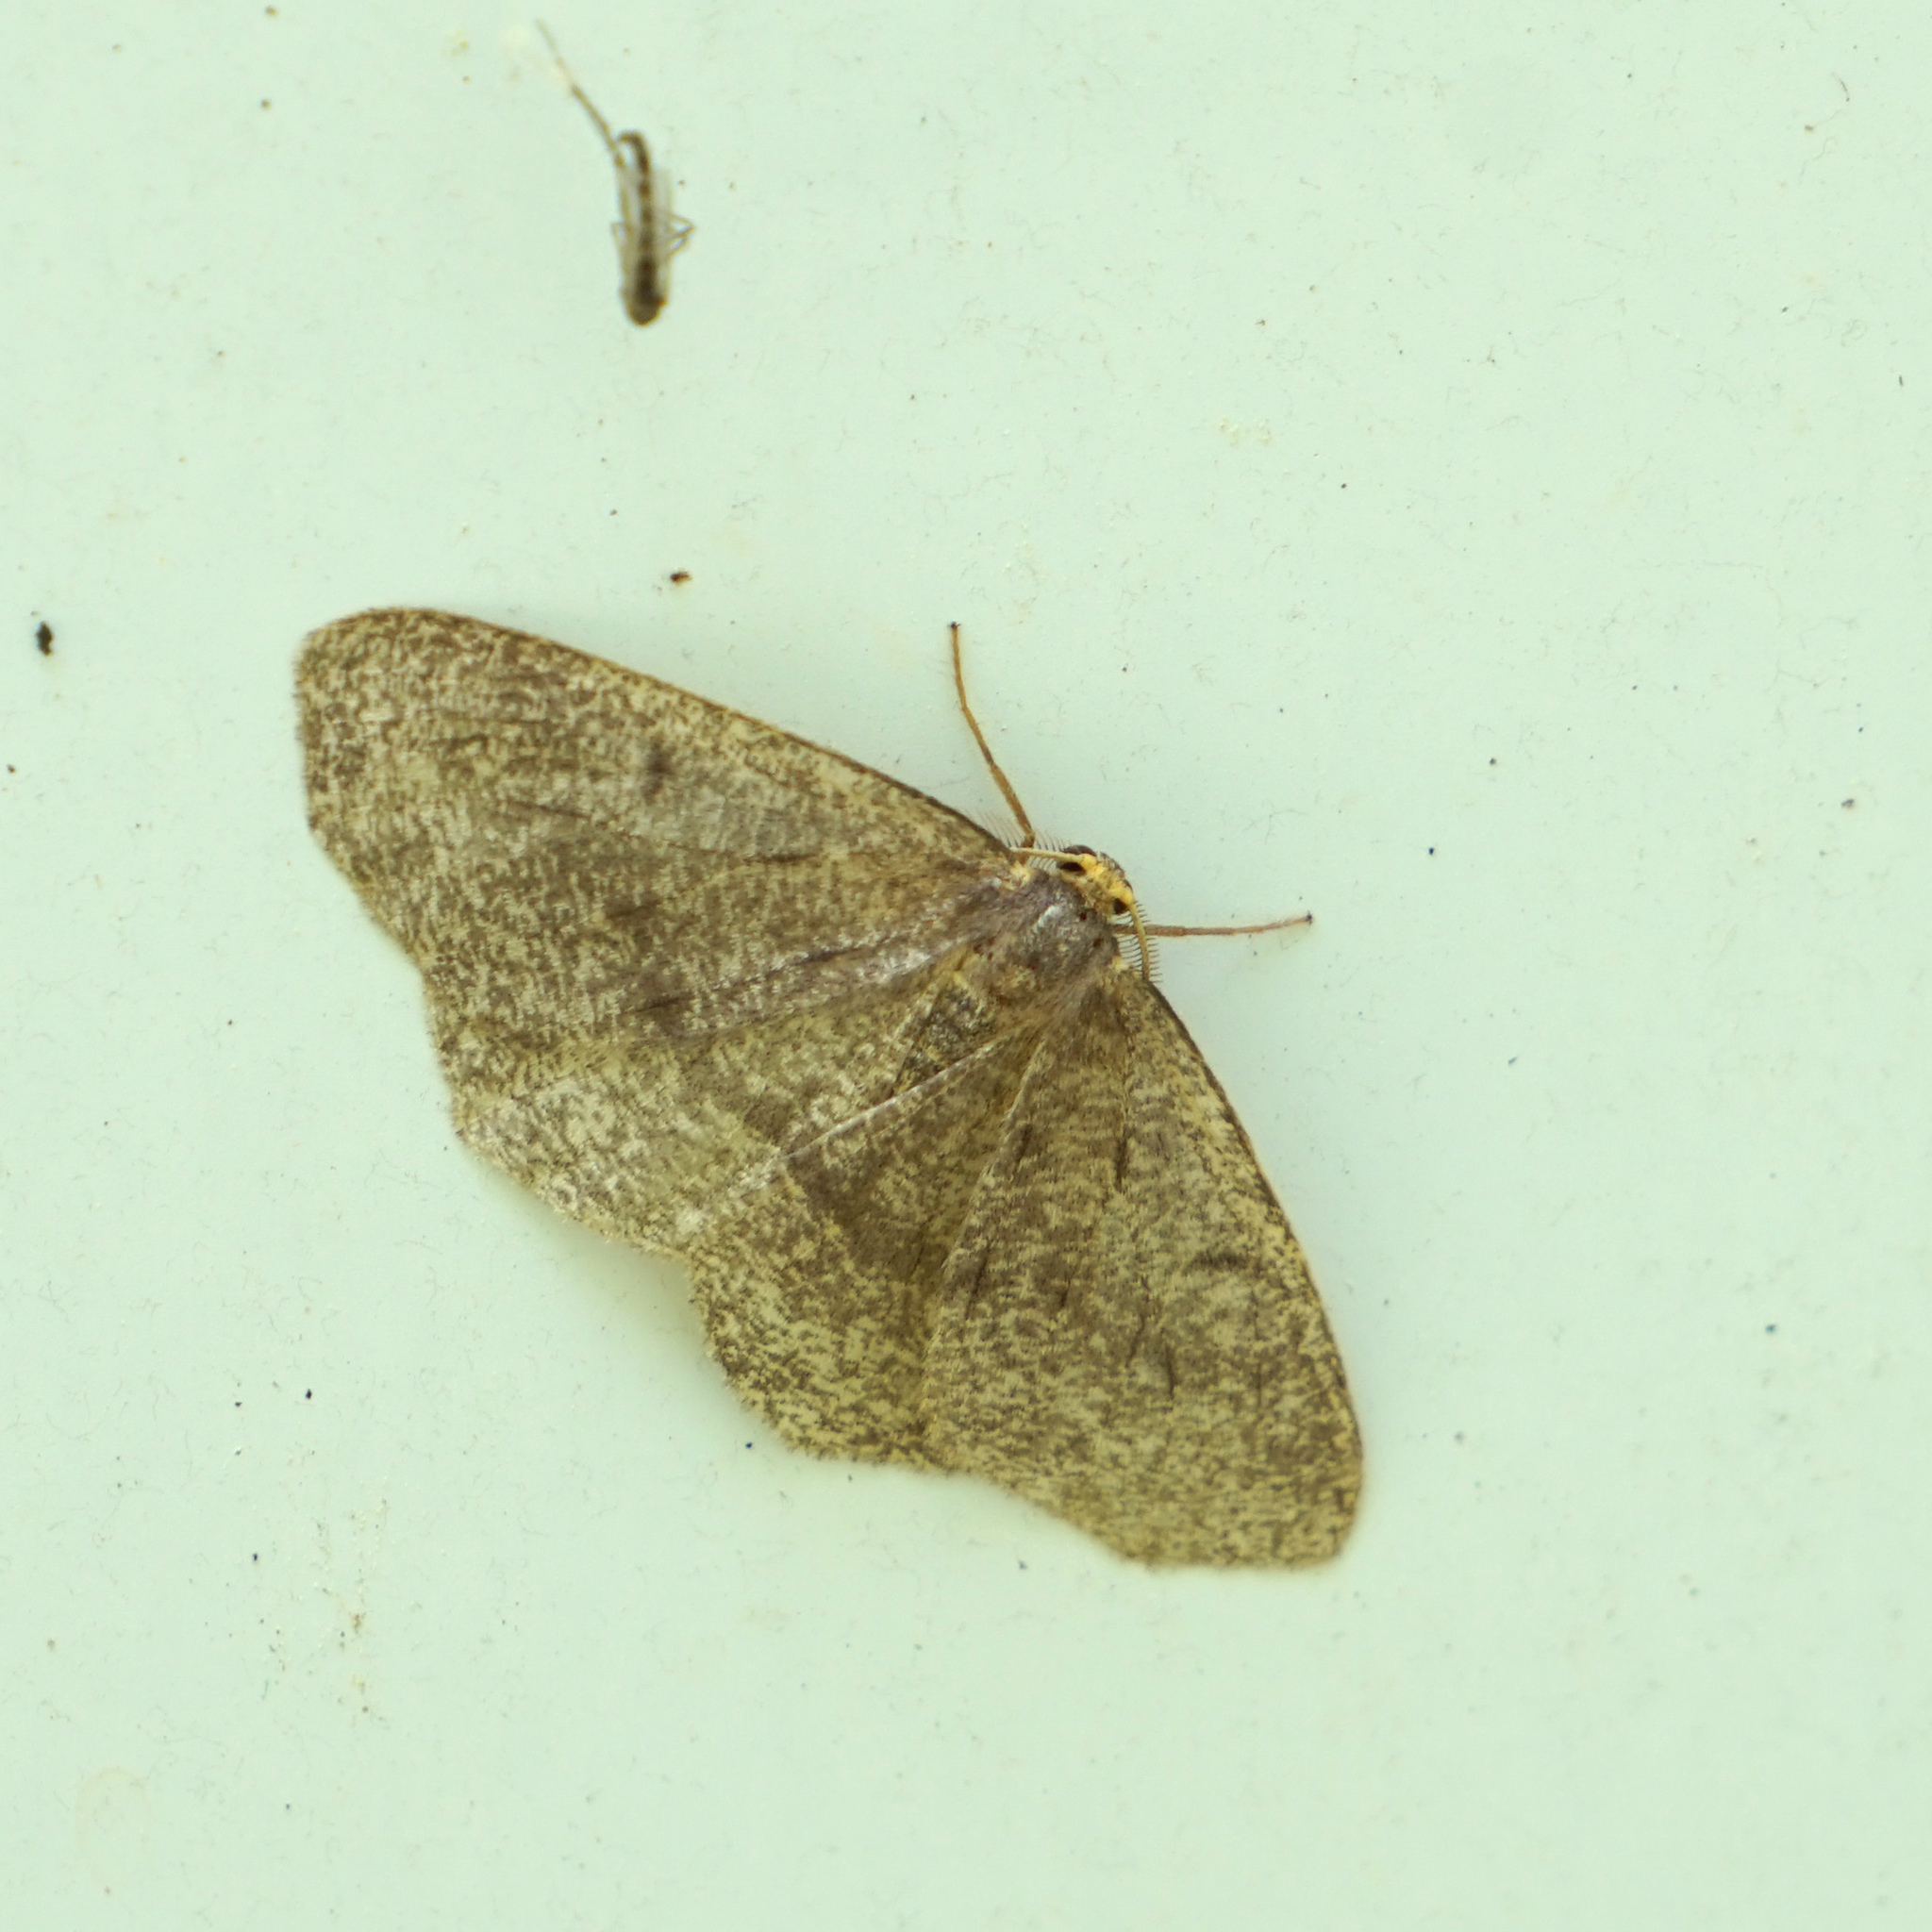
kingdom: Animalia
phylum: Arthropoda
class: Insecta
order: Lepidoptera
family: Geometridae
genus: Lambdina
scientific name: Lambdina fervidaria
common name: Curve-lined looper moth
